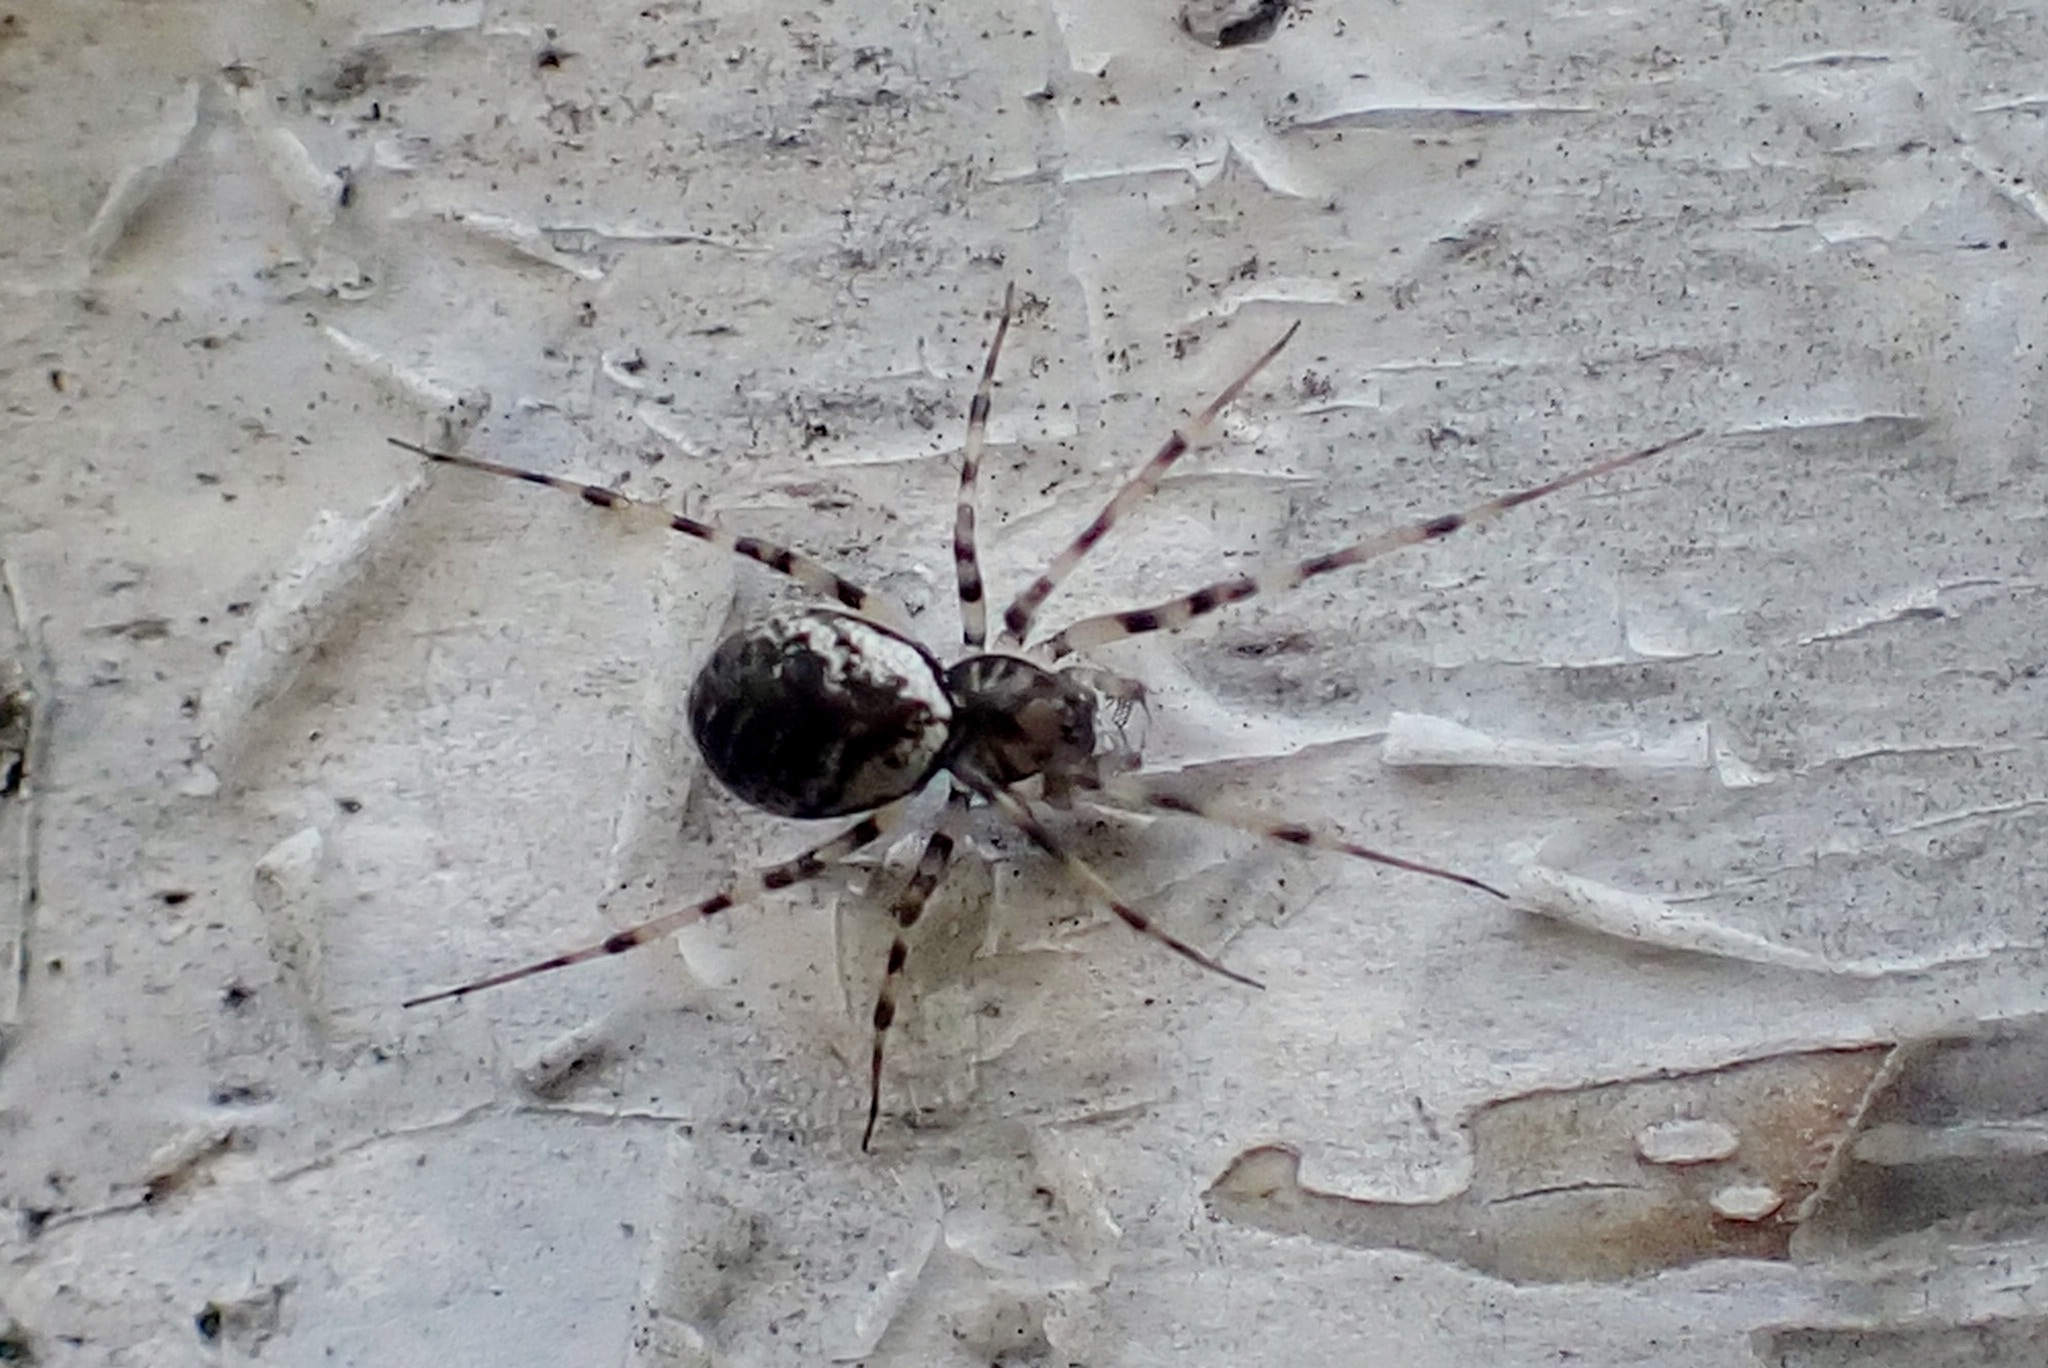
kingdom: Animalia
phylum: Arthropoda
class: Arachnida
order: Araneae
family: Linyphiidae
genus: Drapetisca
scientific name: Drapetisca socialis
